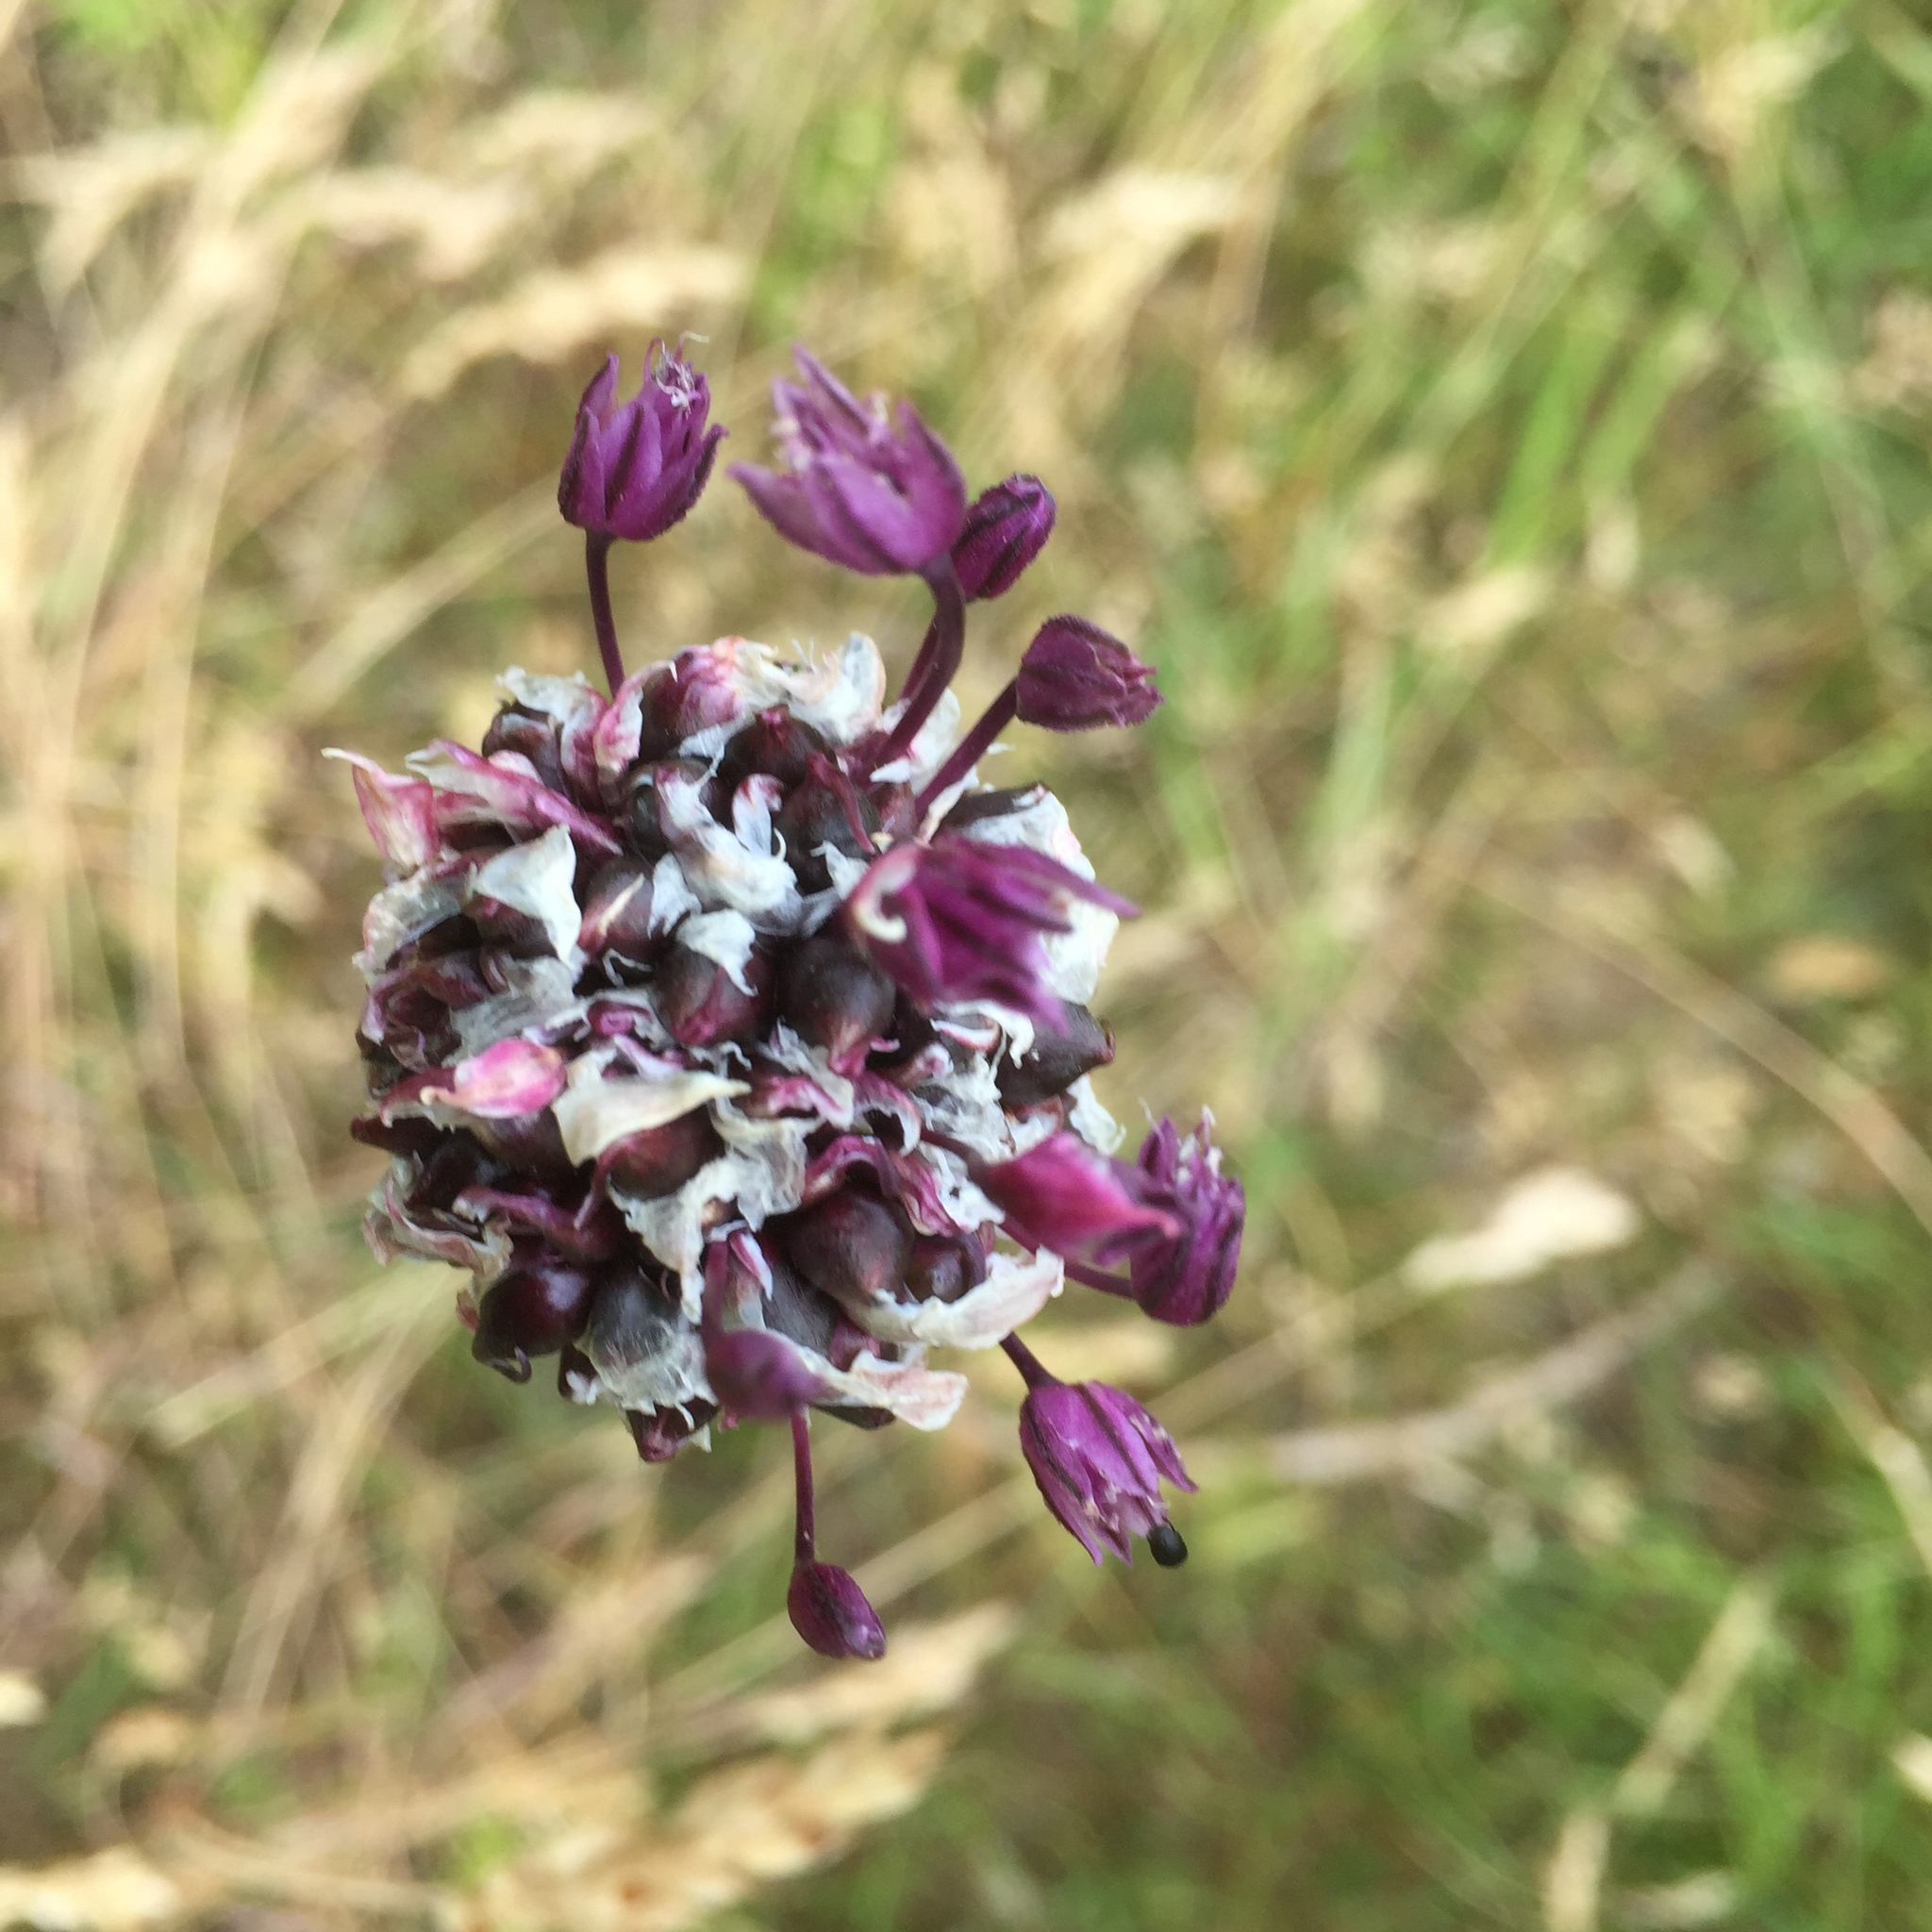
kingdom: Plantae
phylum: Tracheophyta
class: Liliopsida
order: Asparagales
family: Amaryllidaceae
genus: Allium
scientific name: Allium scorodoprasum
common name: Sand leek
